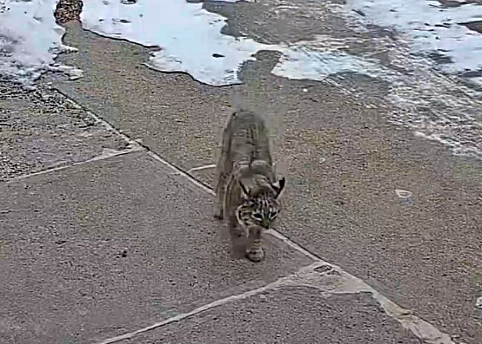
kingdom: Animalia
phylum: Chordata
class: Mammalia
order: Carnivora
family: Felidae
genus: Lynx
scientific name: Lynx rufus
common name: Bobcat
